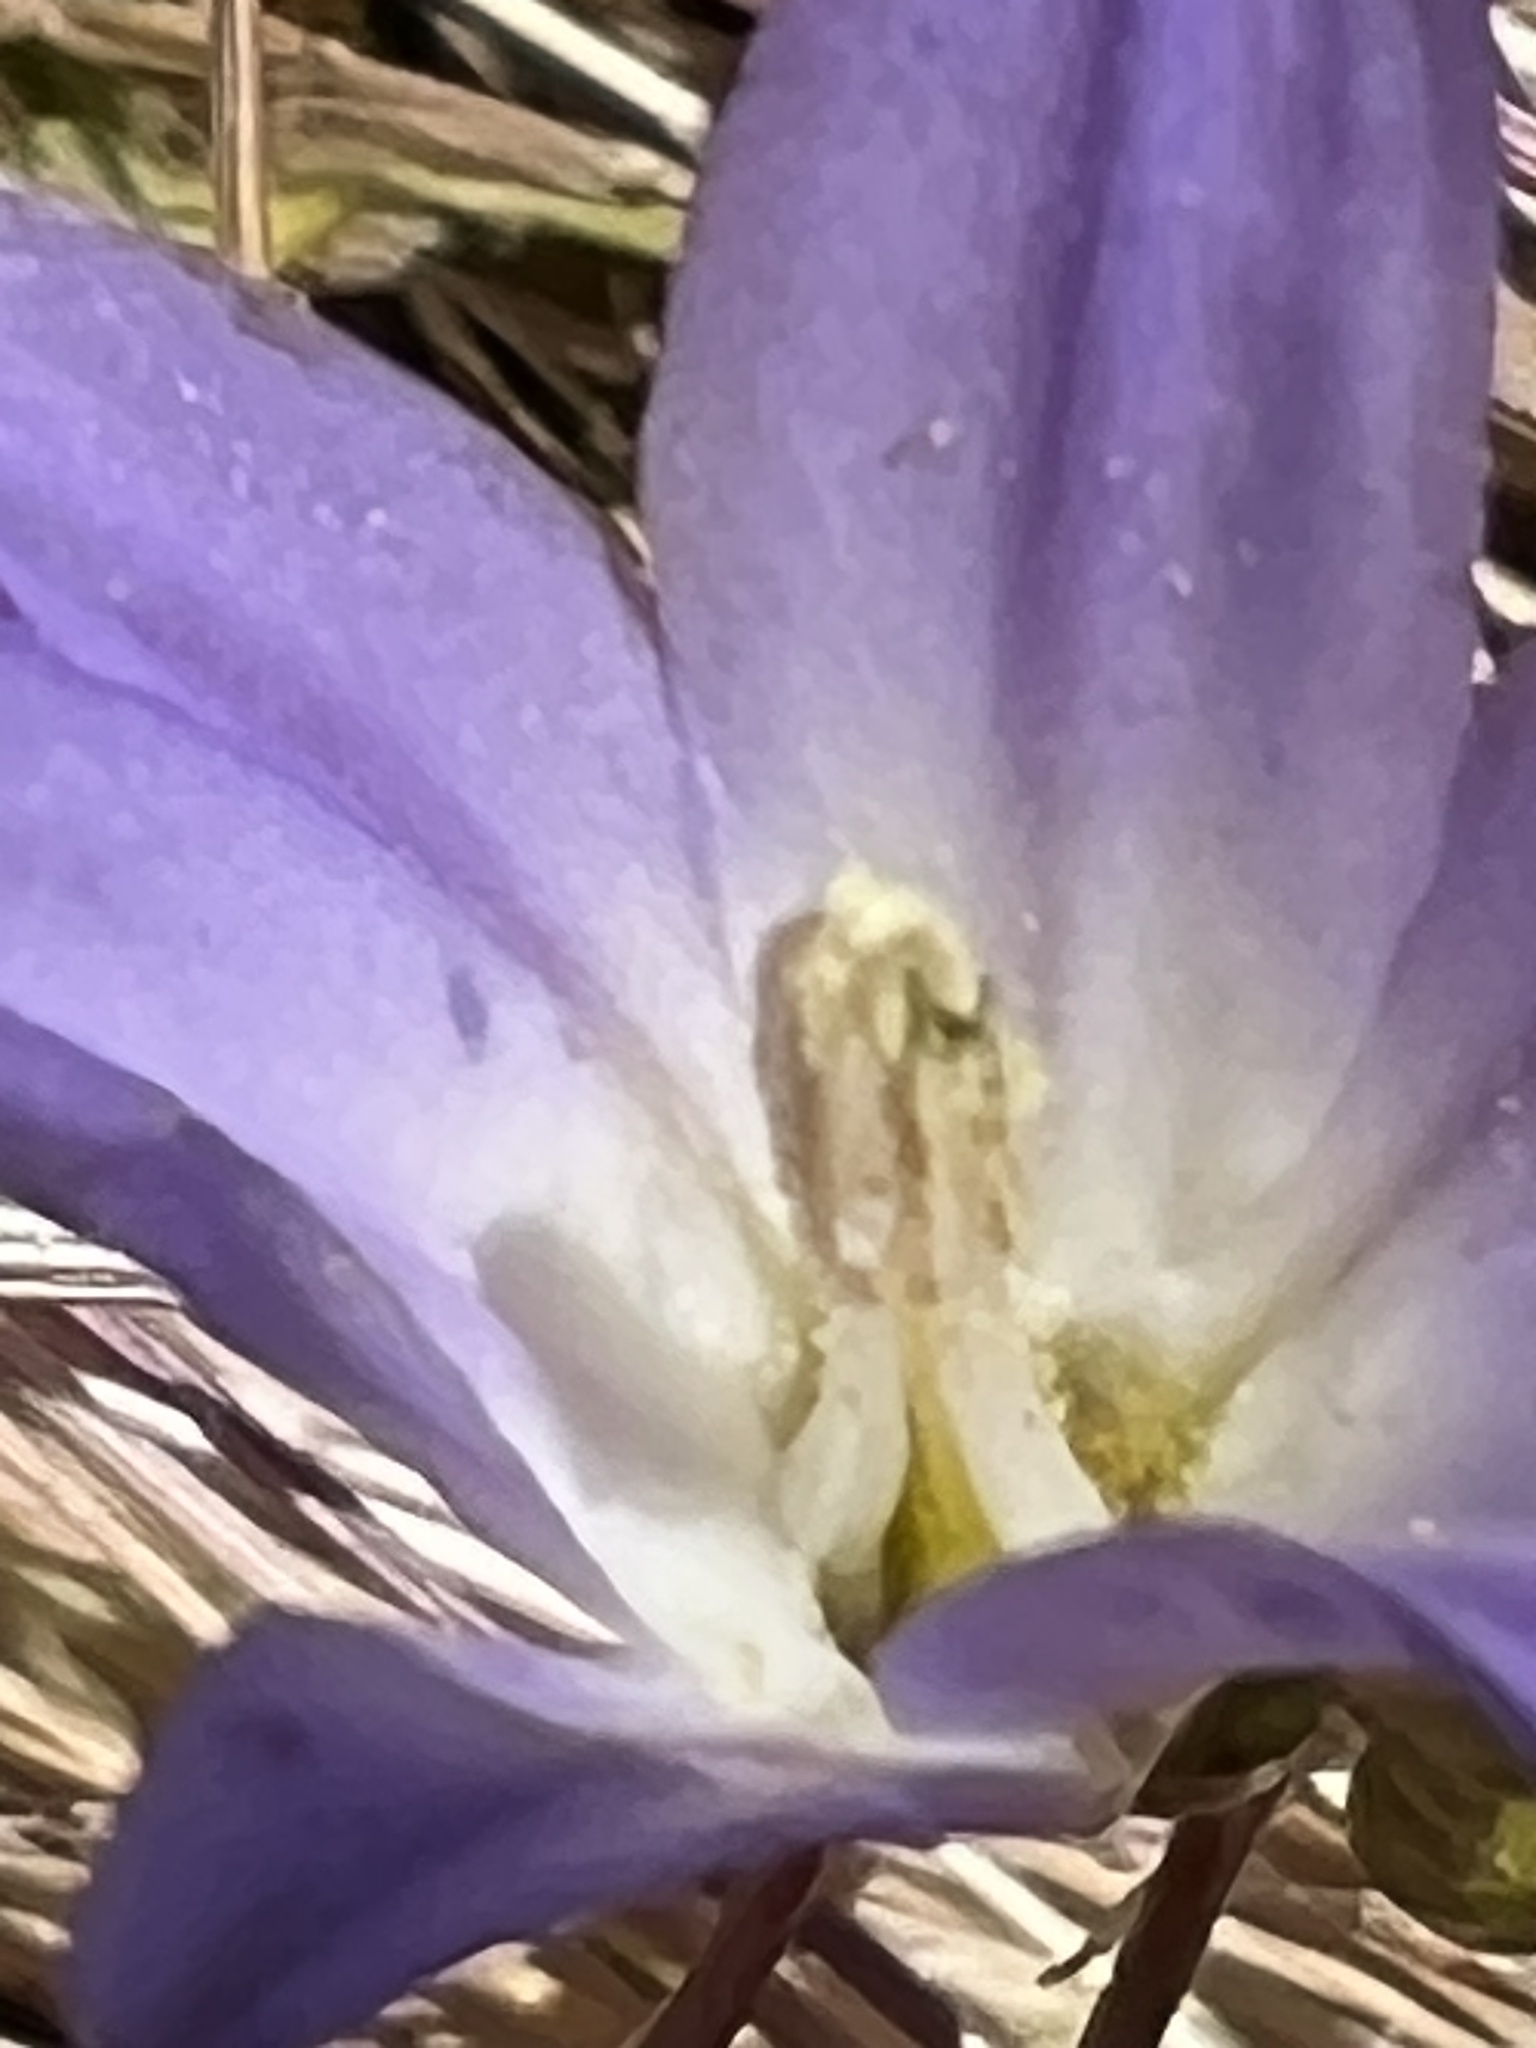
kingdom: Plantae
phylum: Tracheophyta
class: Liliopsida
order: Asparagales
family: Asparagaceae
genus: Brodiaea
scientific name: Brodiaea orcuttii
